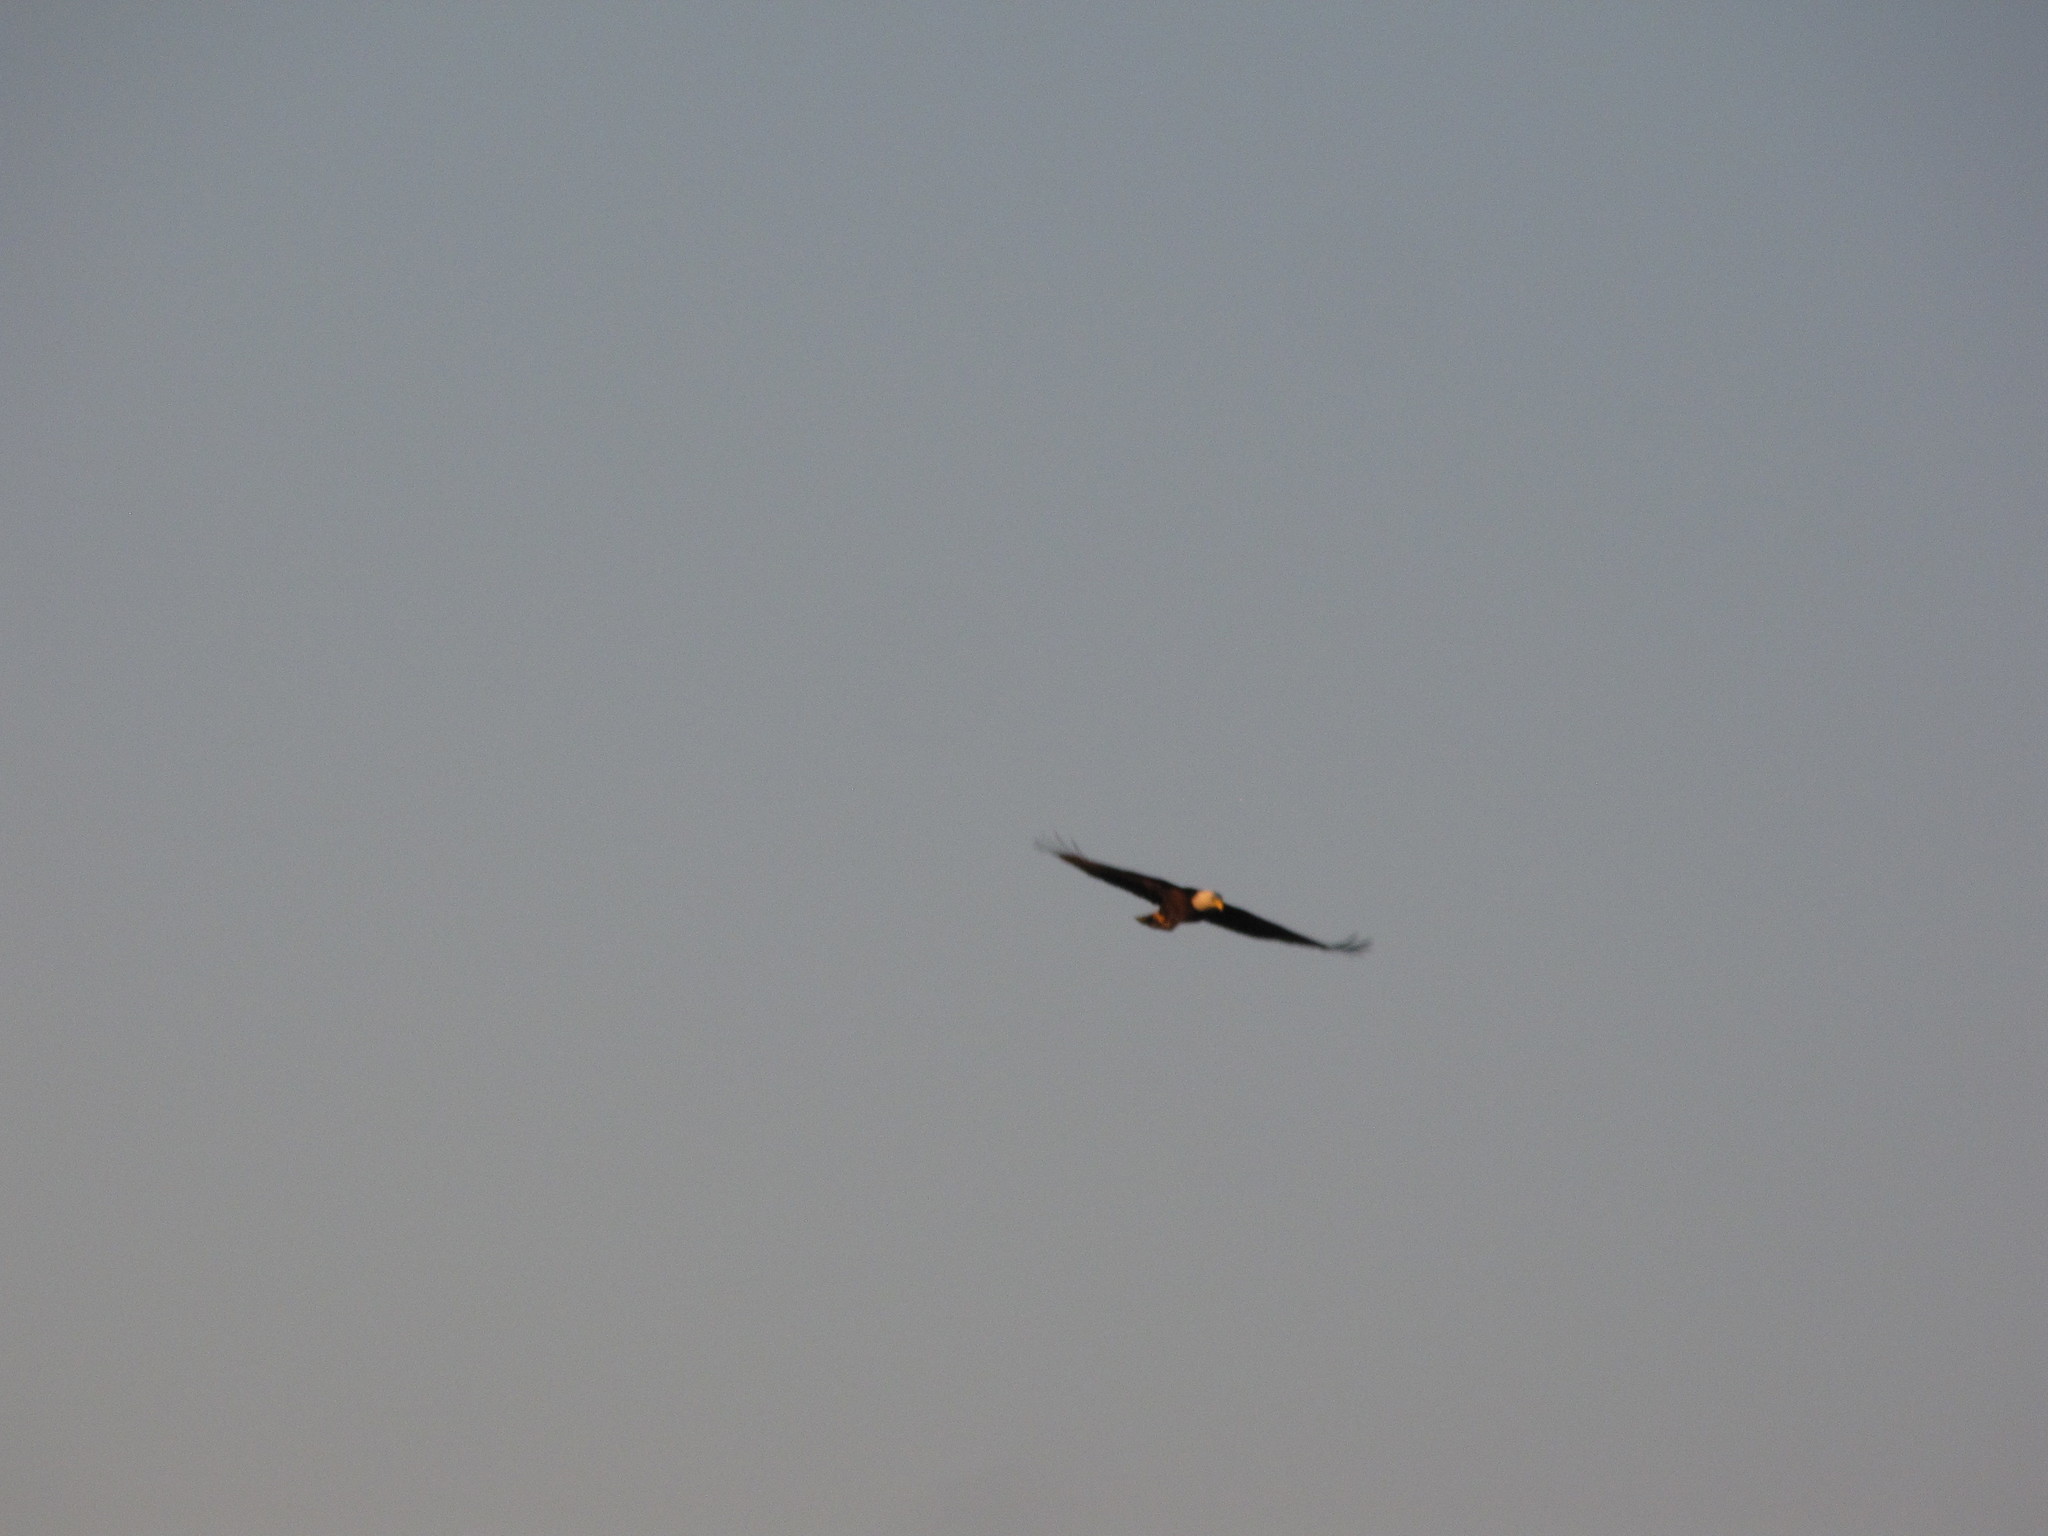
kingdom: Animalia
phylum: Chordata
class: Aves
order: Accipitriformes
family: Accipitridae
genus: Haliaeetus
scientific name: Haliaeetus leucocephalus
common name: Bald eagle
